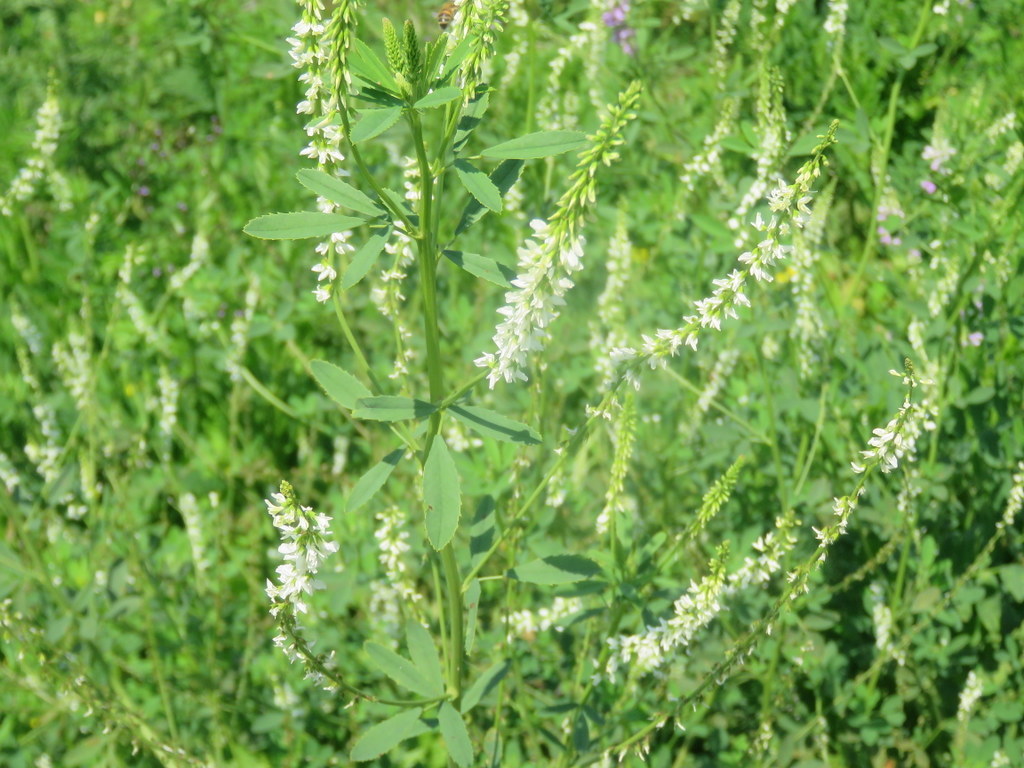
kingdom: Plantae
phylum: Tracheophyta
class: Magnoliopsida
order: Fabales
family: Fabaceae
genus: Melilotus
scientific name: Melilotus albus
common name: White melilot
